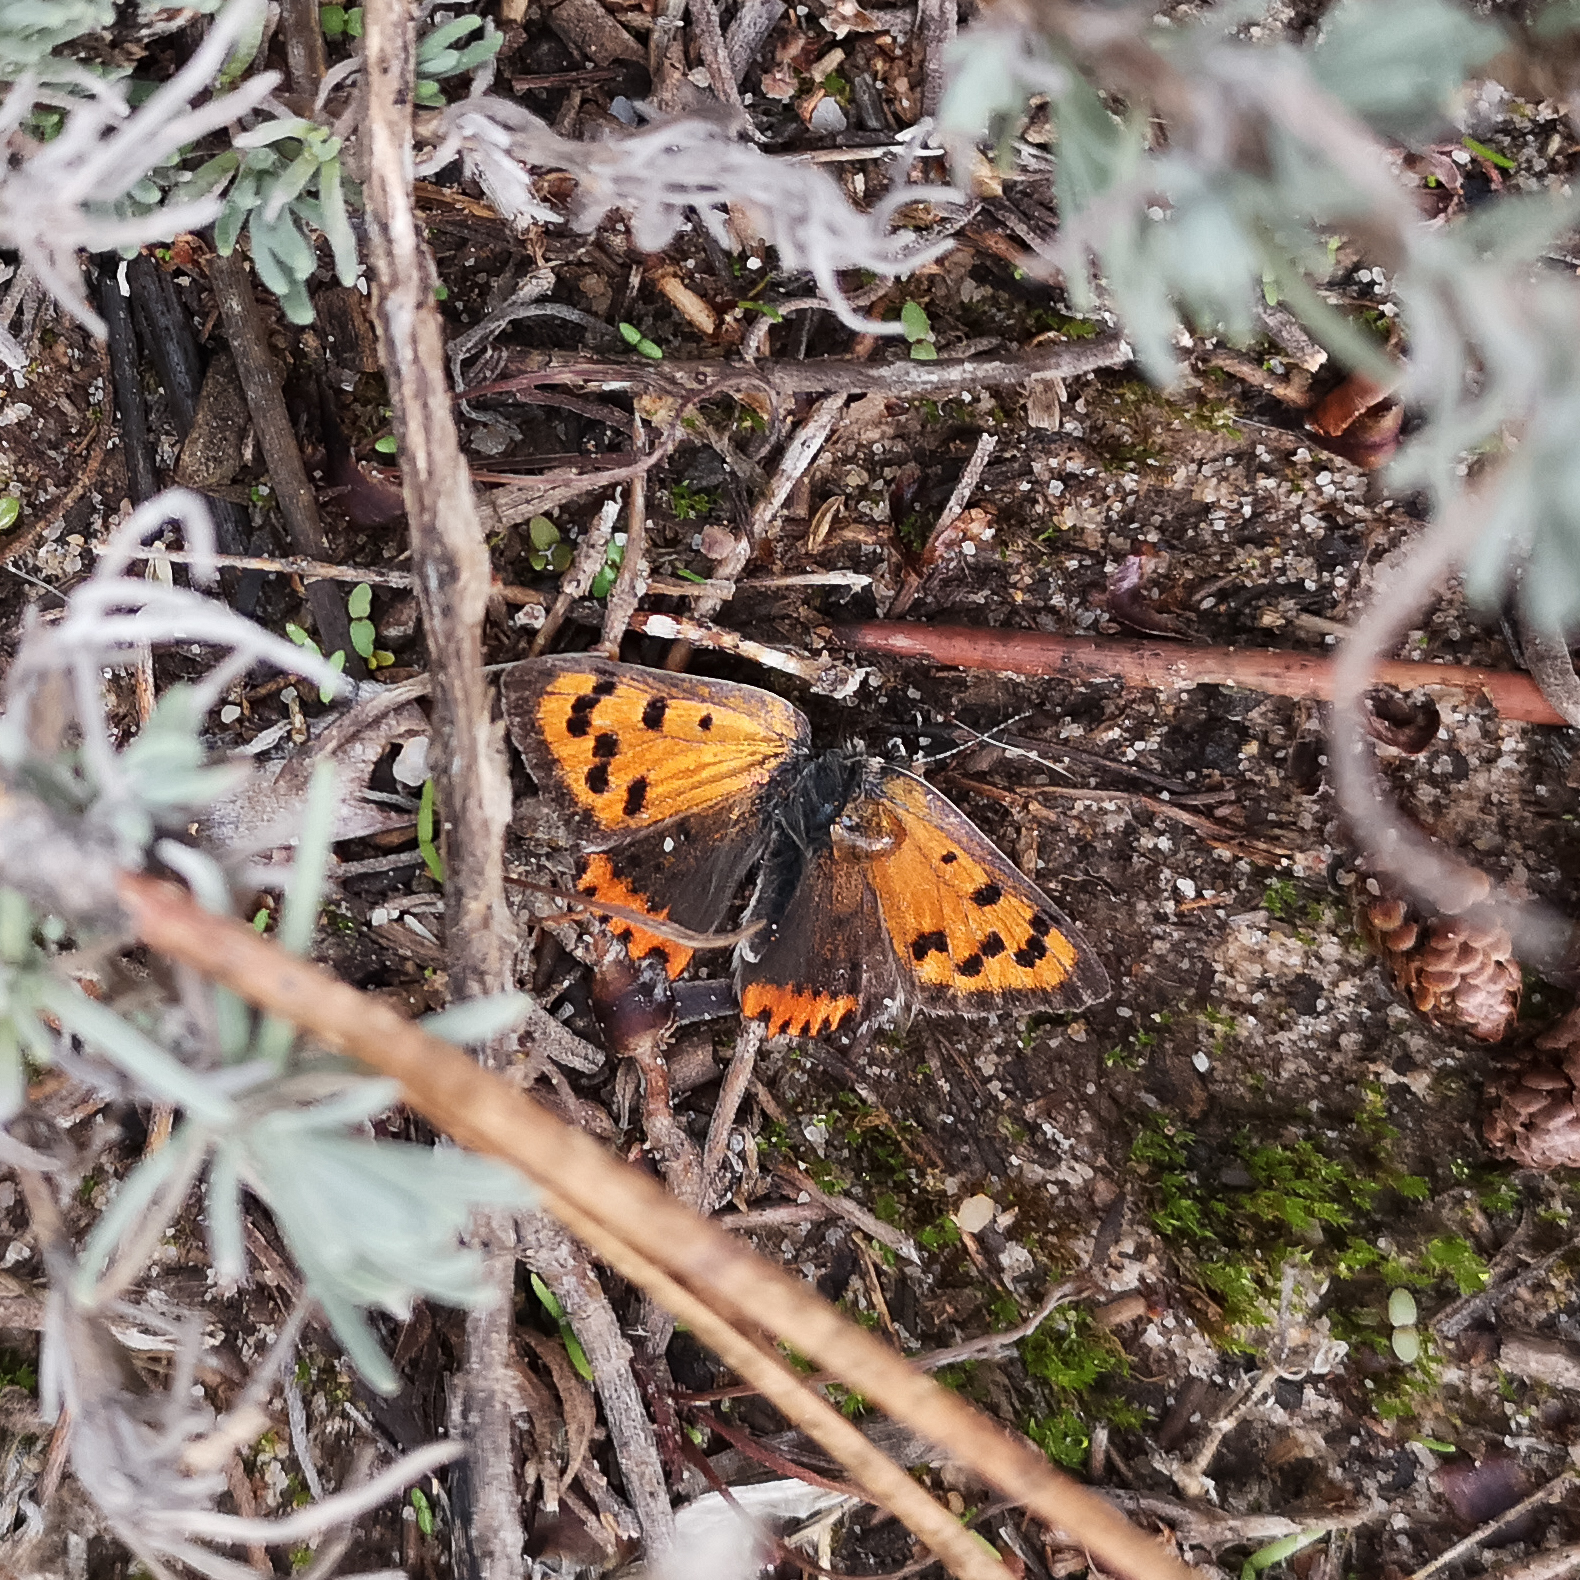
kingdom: Animalia
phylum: Arthropoda
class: Insecta
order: Lepidoptera
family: Lycaenidae
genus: Lycaena
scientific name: Lycaena phlaeas
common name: Small copper
